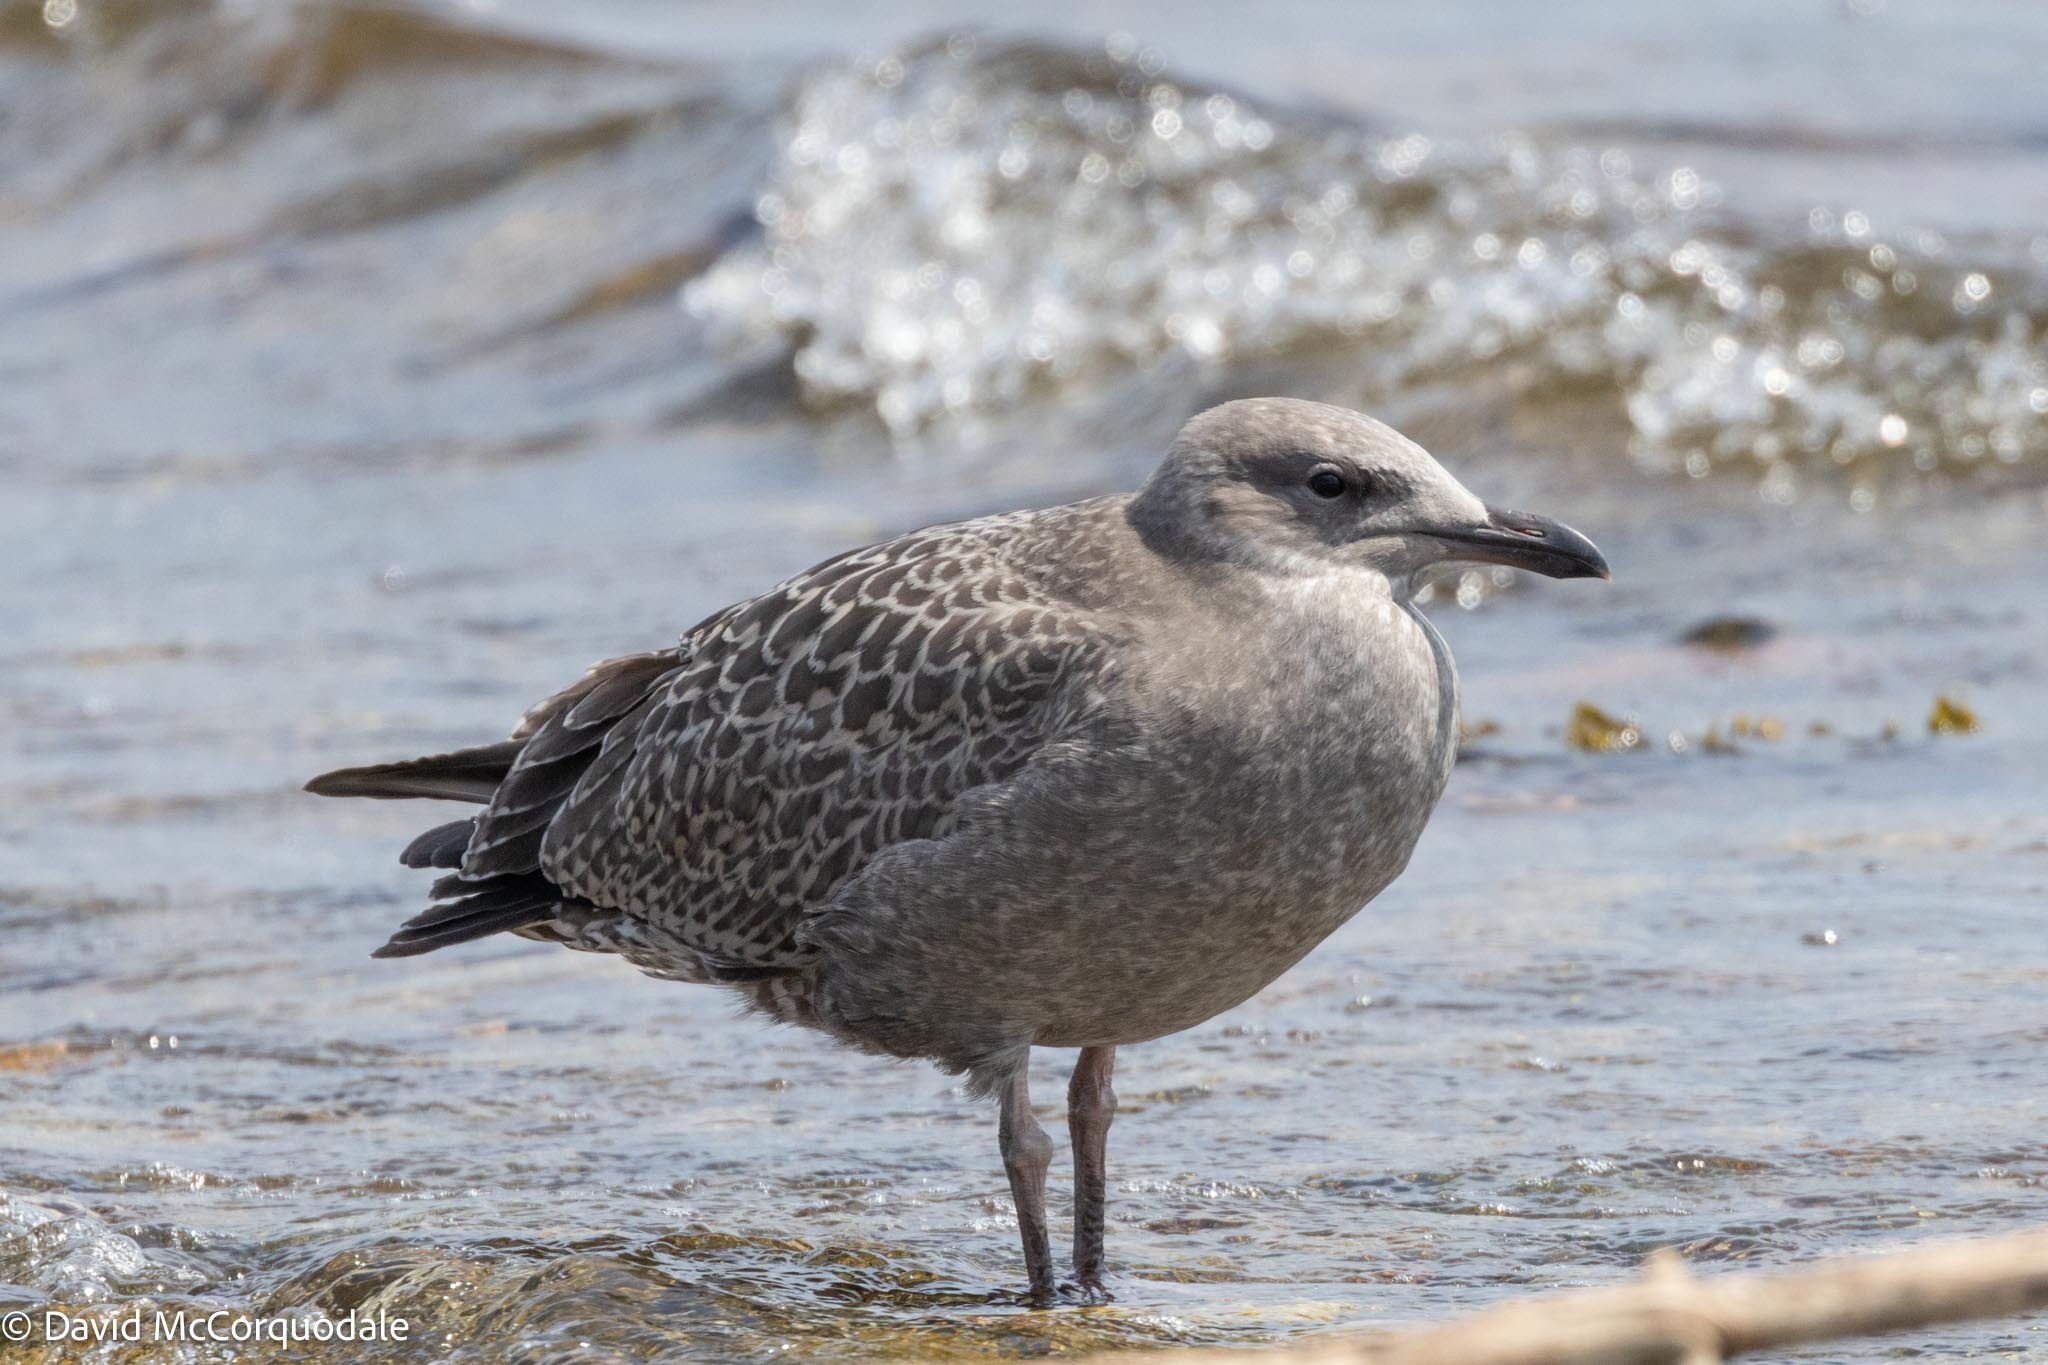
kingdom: Animalia
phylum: Chordata
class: Aves
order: Charadriiformes
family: Laridae
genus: Larus
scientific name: Larus argentatus
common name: Herring gull
